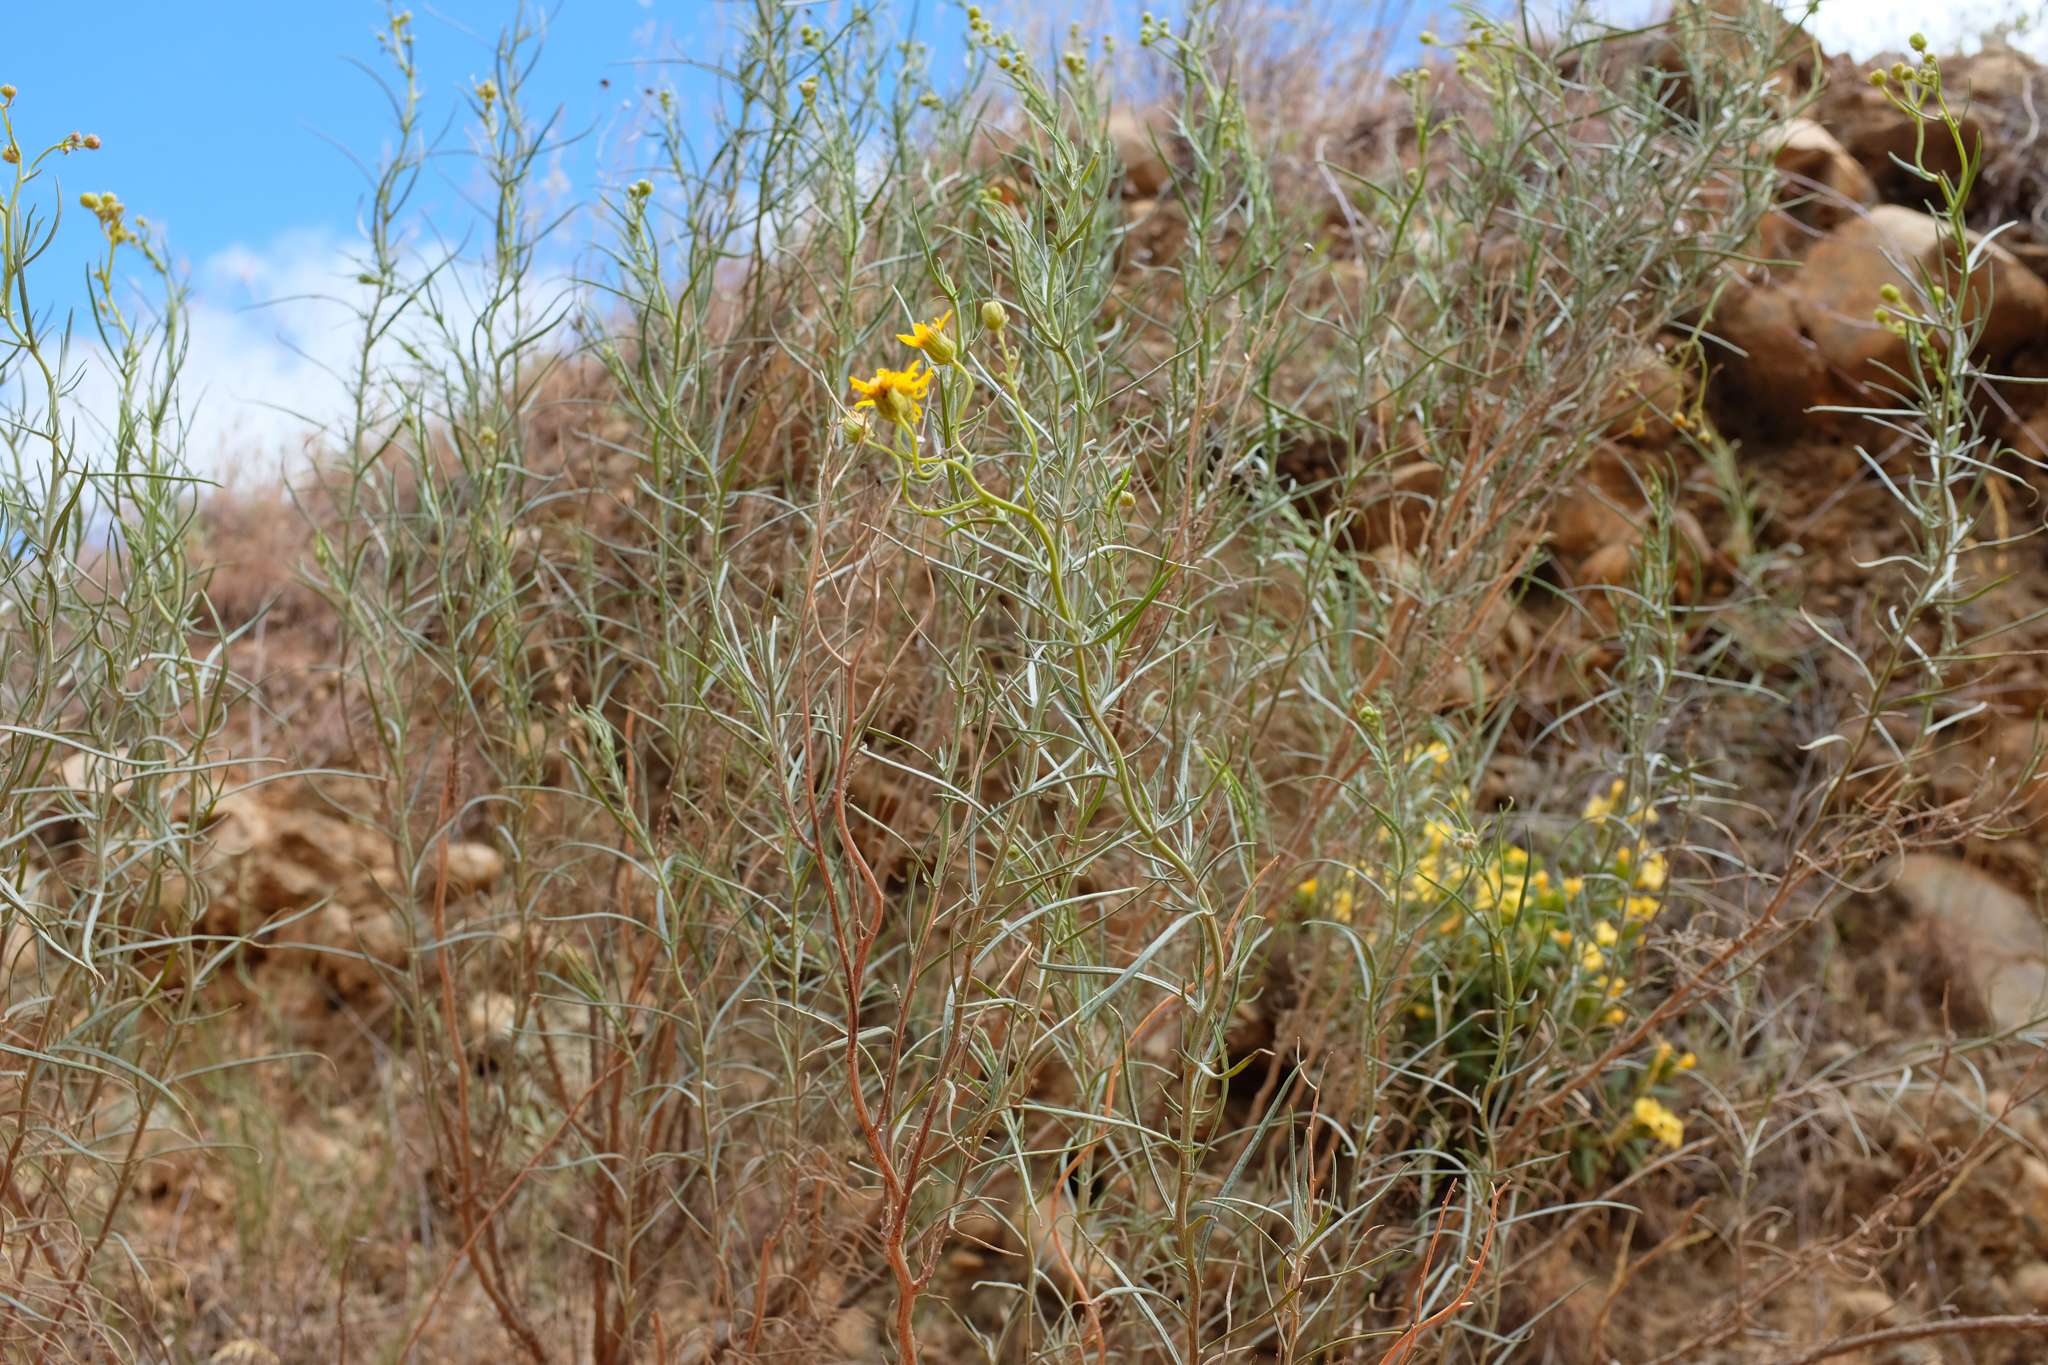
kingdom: Plantae
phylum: Tracheophyta
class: Magnoliopsida
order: Asterales
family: Asteraceae
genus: Senecio
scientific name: Senecio flaccidus
